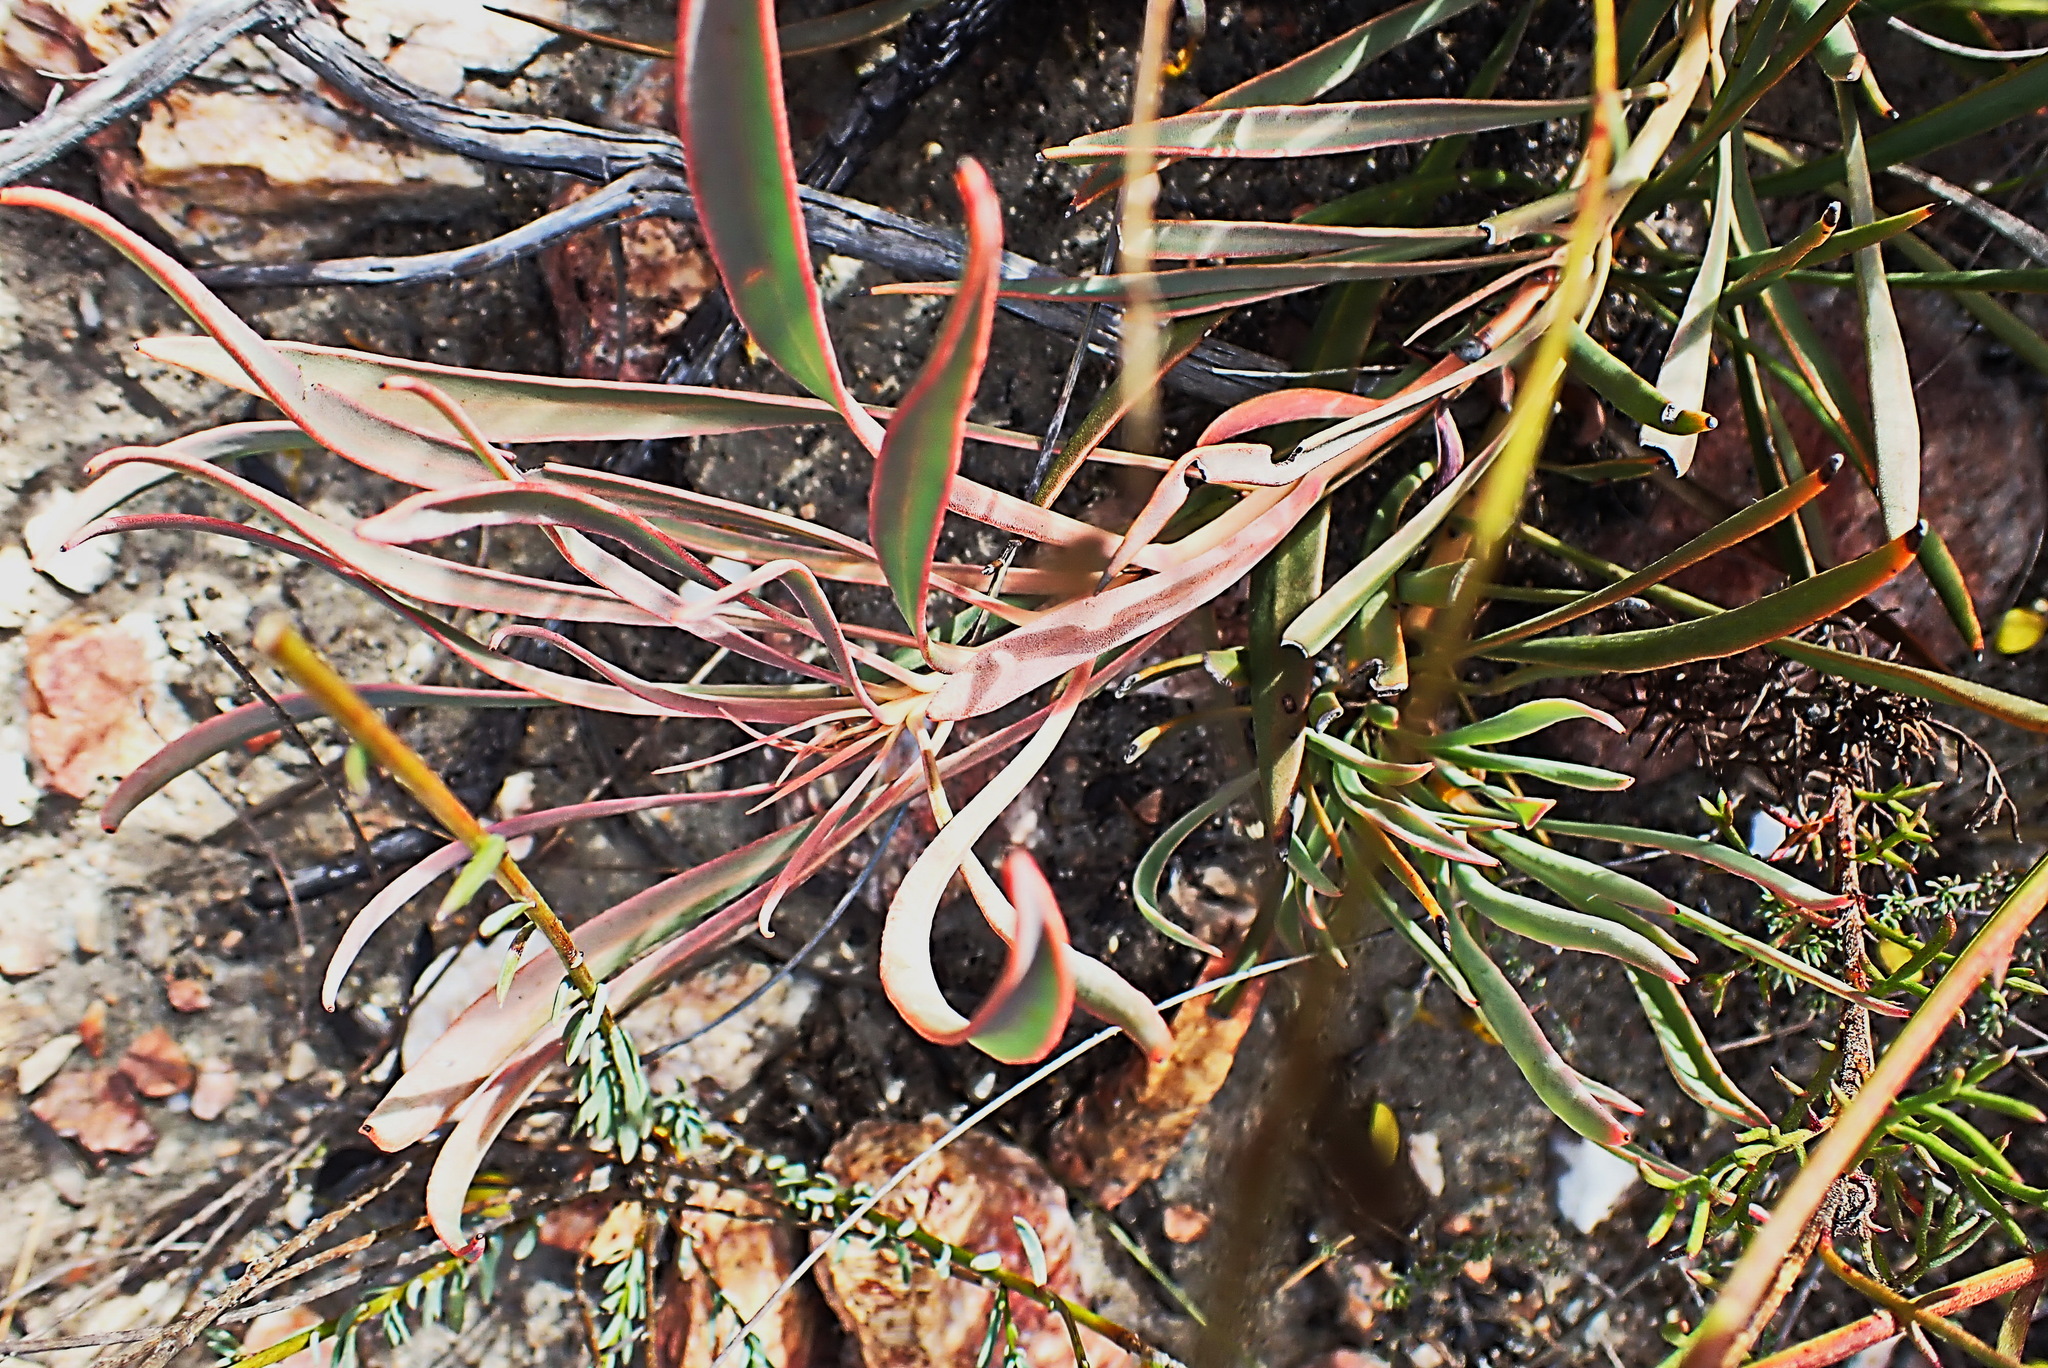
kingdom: Plantae
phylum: Tracheophyta
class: Magnoliopsida
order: Proteales
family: Proteaceae
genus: Protea
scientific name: Protea tenax
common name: Tenacious sugarbush
